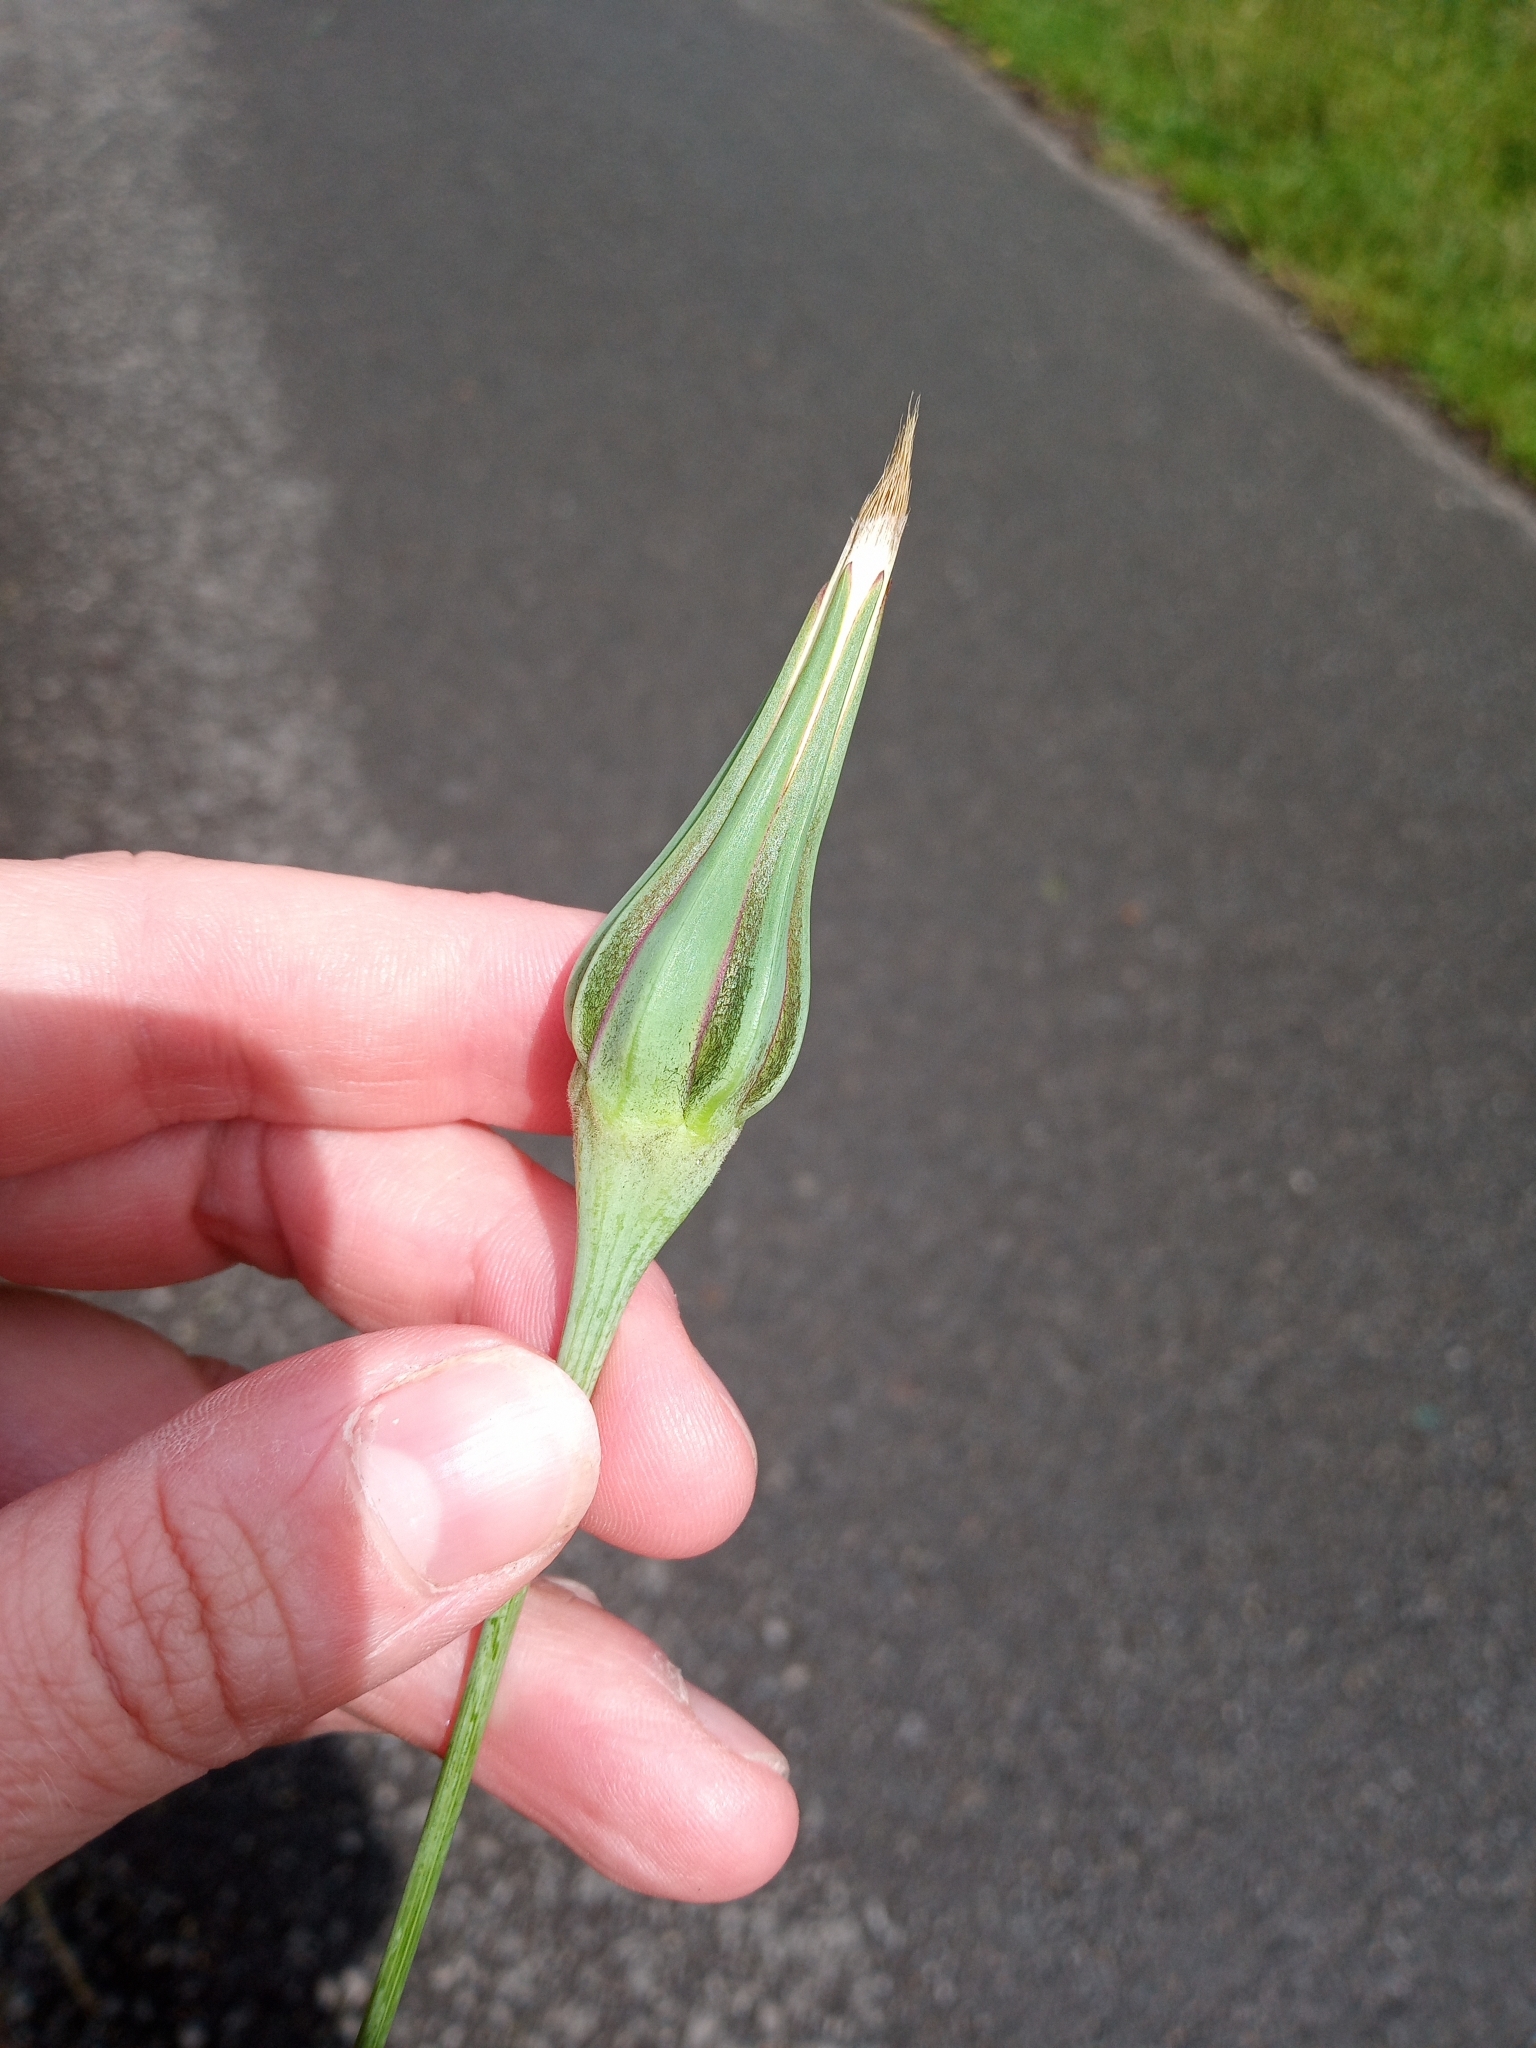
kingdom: Plantae
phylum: Tracheophyta
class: Magnoliopsida
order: Asterales
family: Asteraceae
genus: Tragopogon
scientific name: Tragopogon pratensis
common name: Goat's-beard
